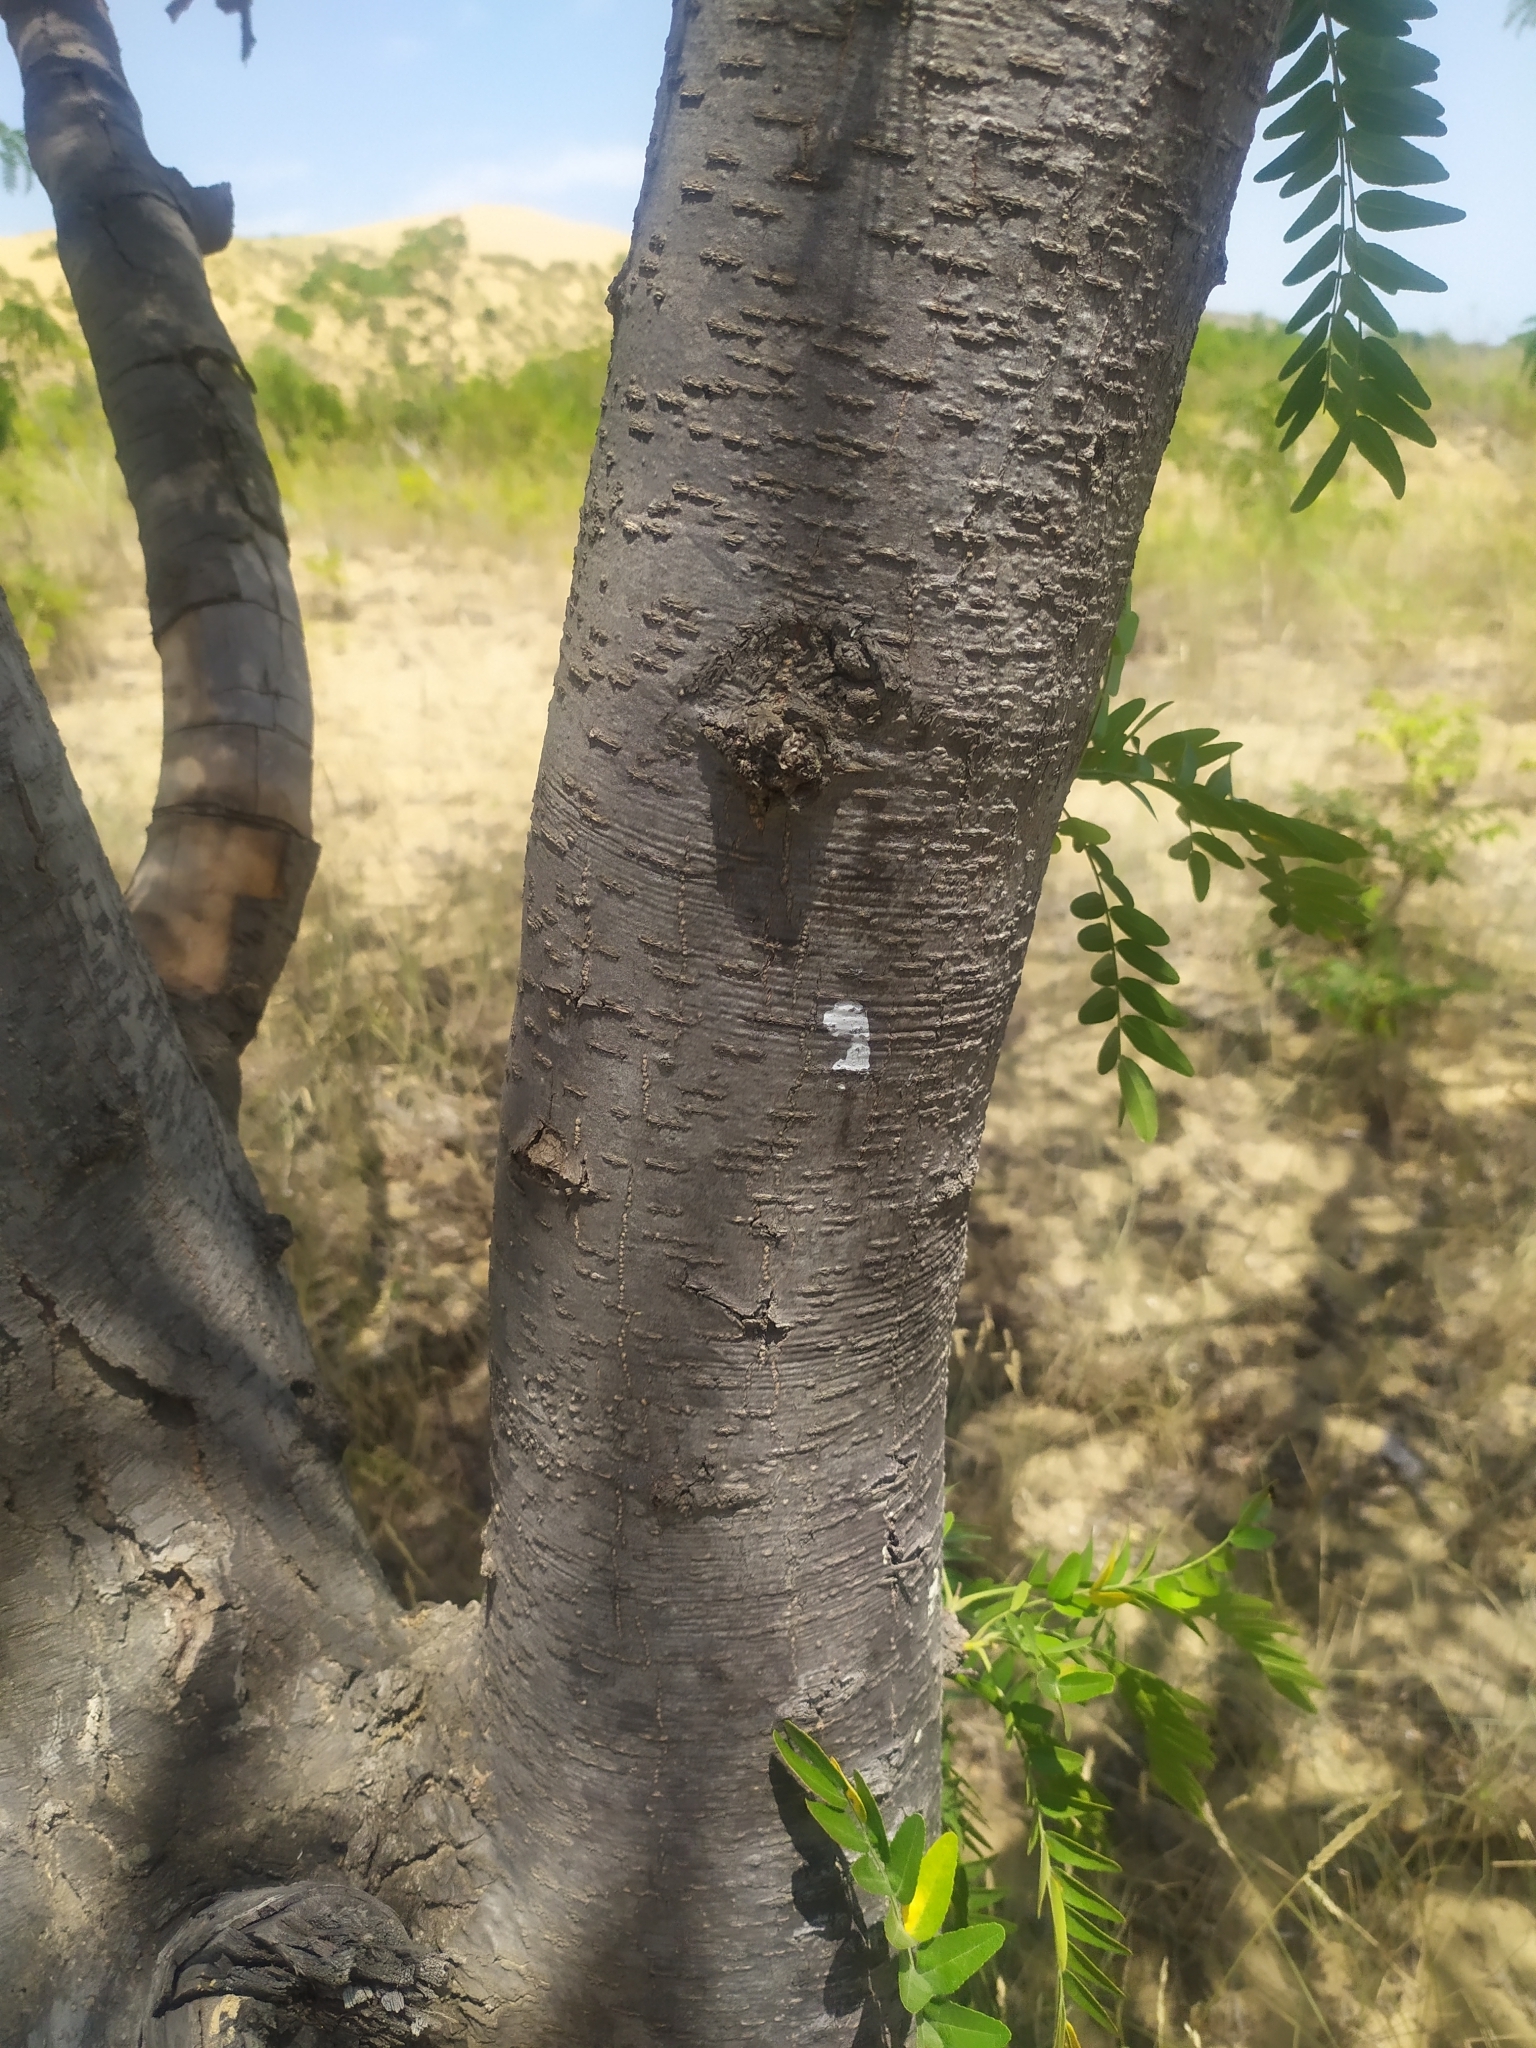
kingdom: Plantae
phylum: Tracheophyta
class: Magnoliopsida
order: Fabales
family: Fabaceae
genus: Gleditsia
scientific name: Gleditsia triacanthos
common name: Common honeylocust
